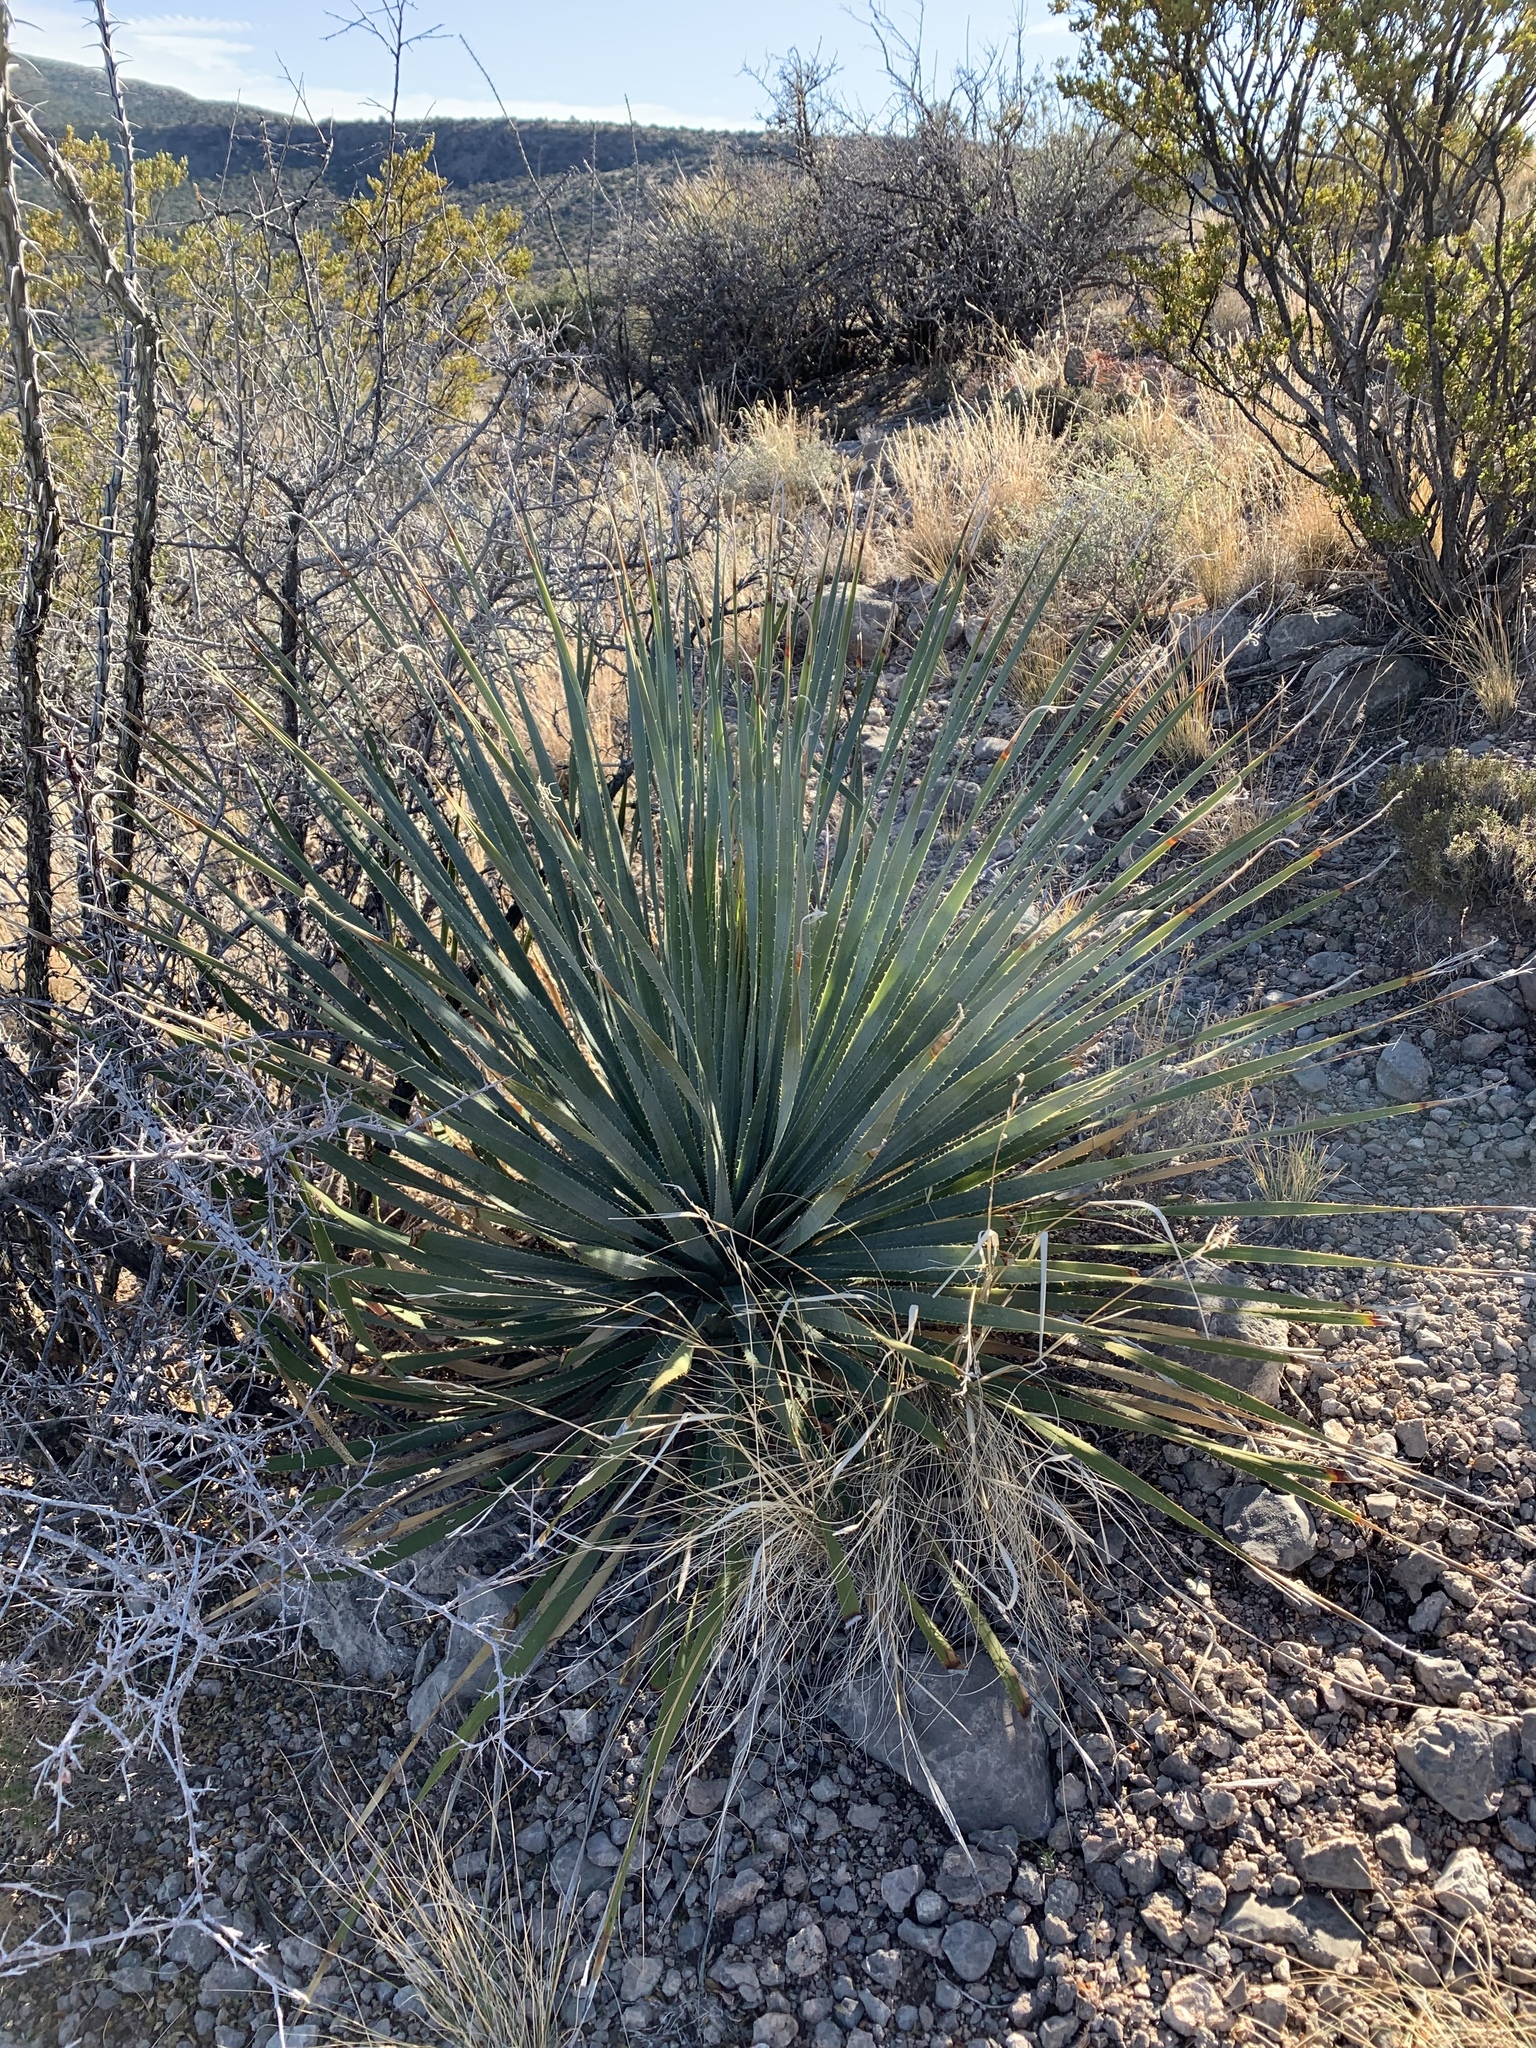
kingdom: Plantae
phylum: Tracheophyta
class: Liliopsida
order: Asparagales
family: Asparagaceae
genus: Dasylirion
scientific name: Dasylirion wheeleri
